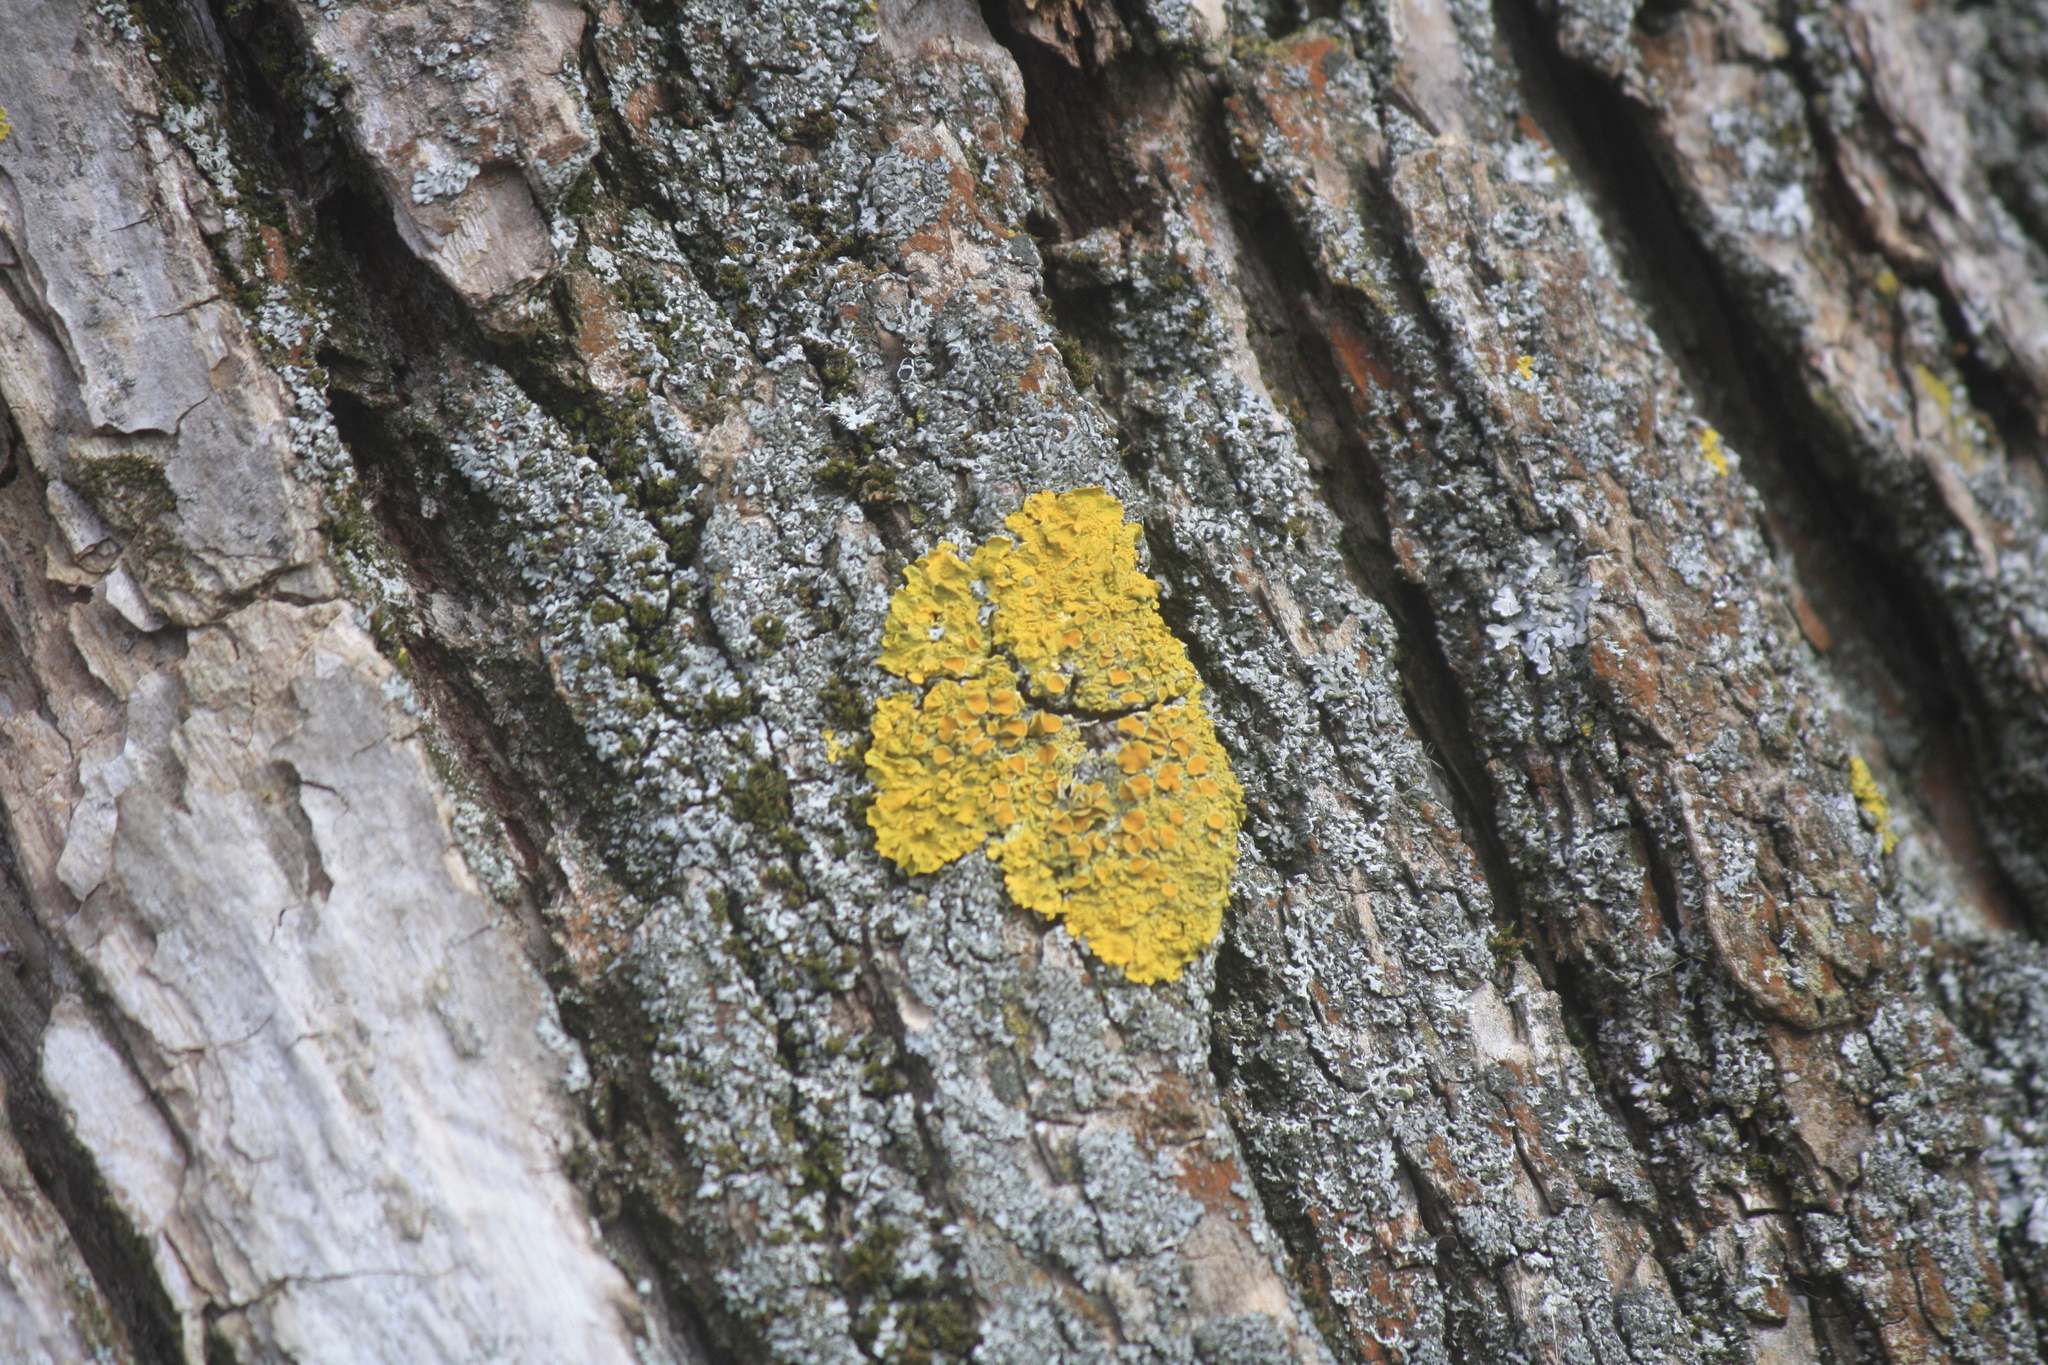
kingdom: Fungi
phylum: Ascomycota
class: Lecanoromycetes
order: Teloschistales
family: Teloschistaceae
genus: Xanthoria
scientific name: Xanthoria parietina
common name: Common orange lichen
